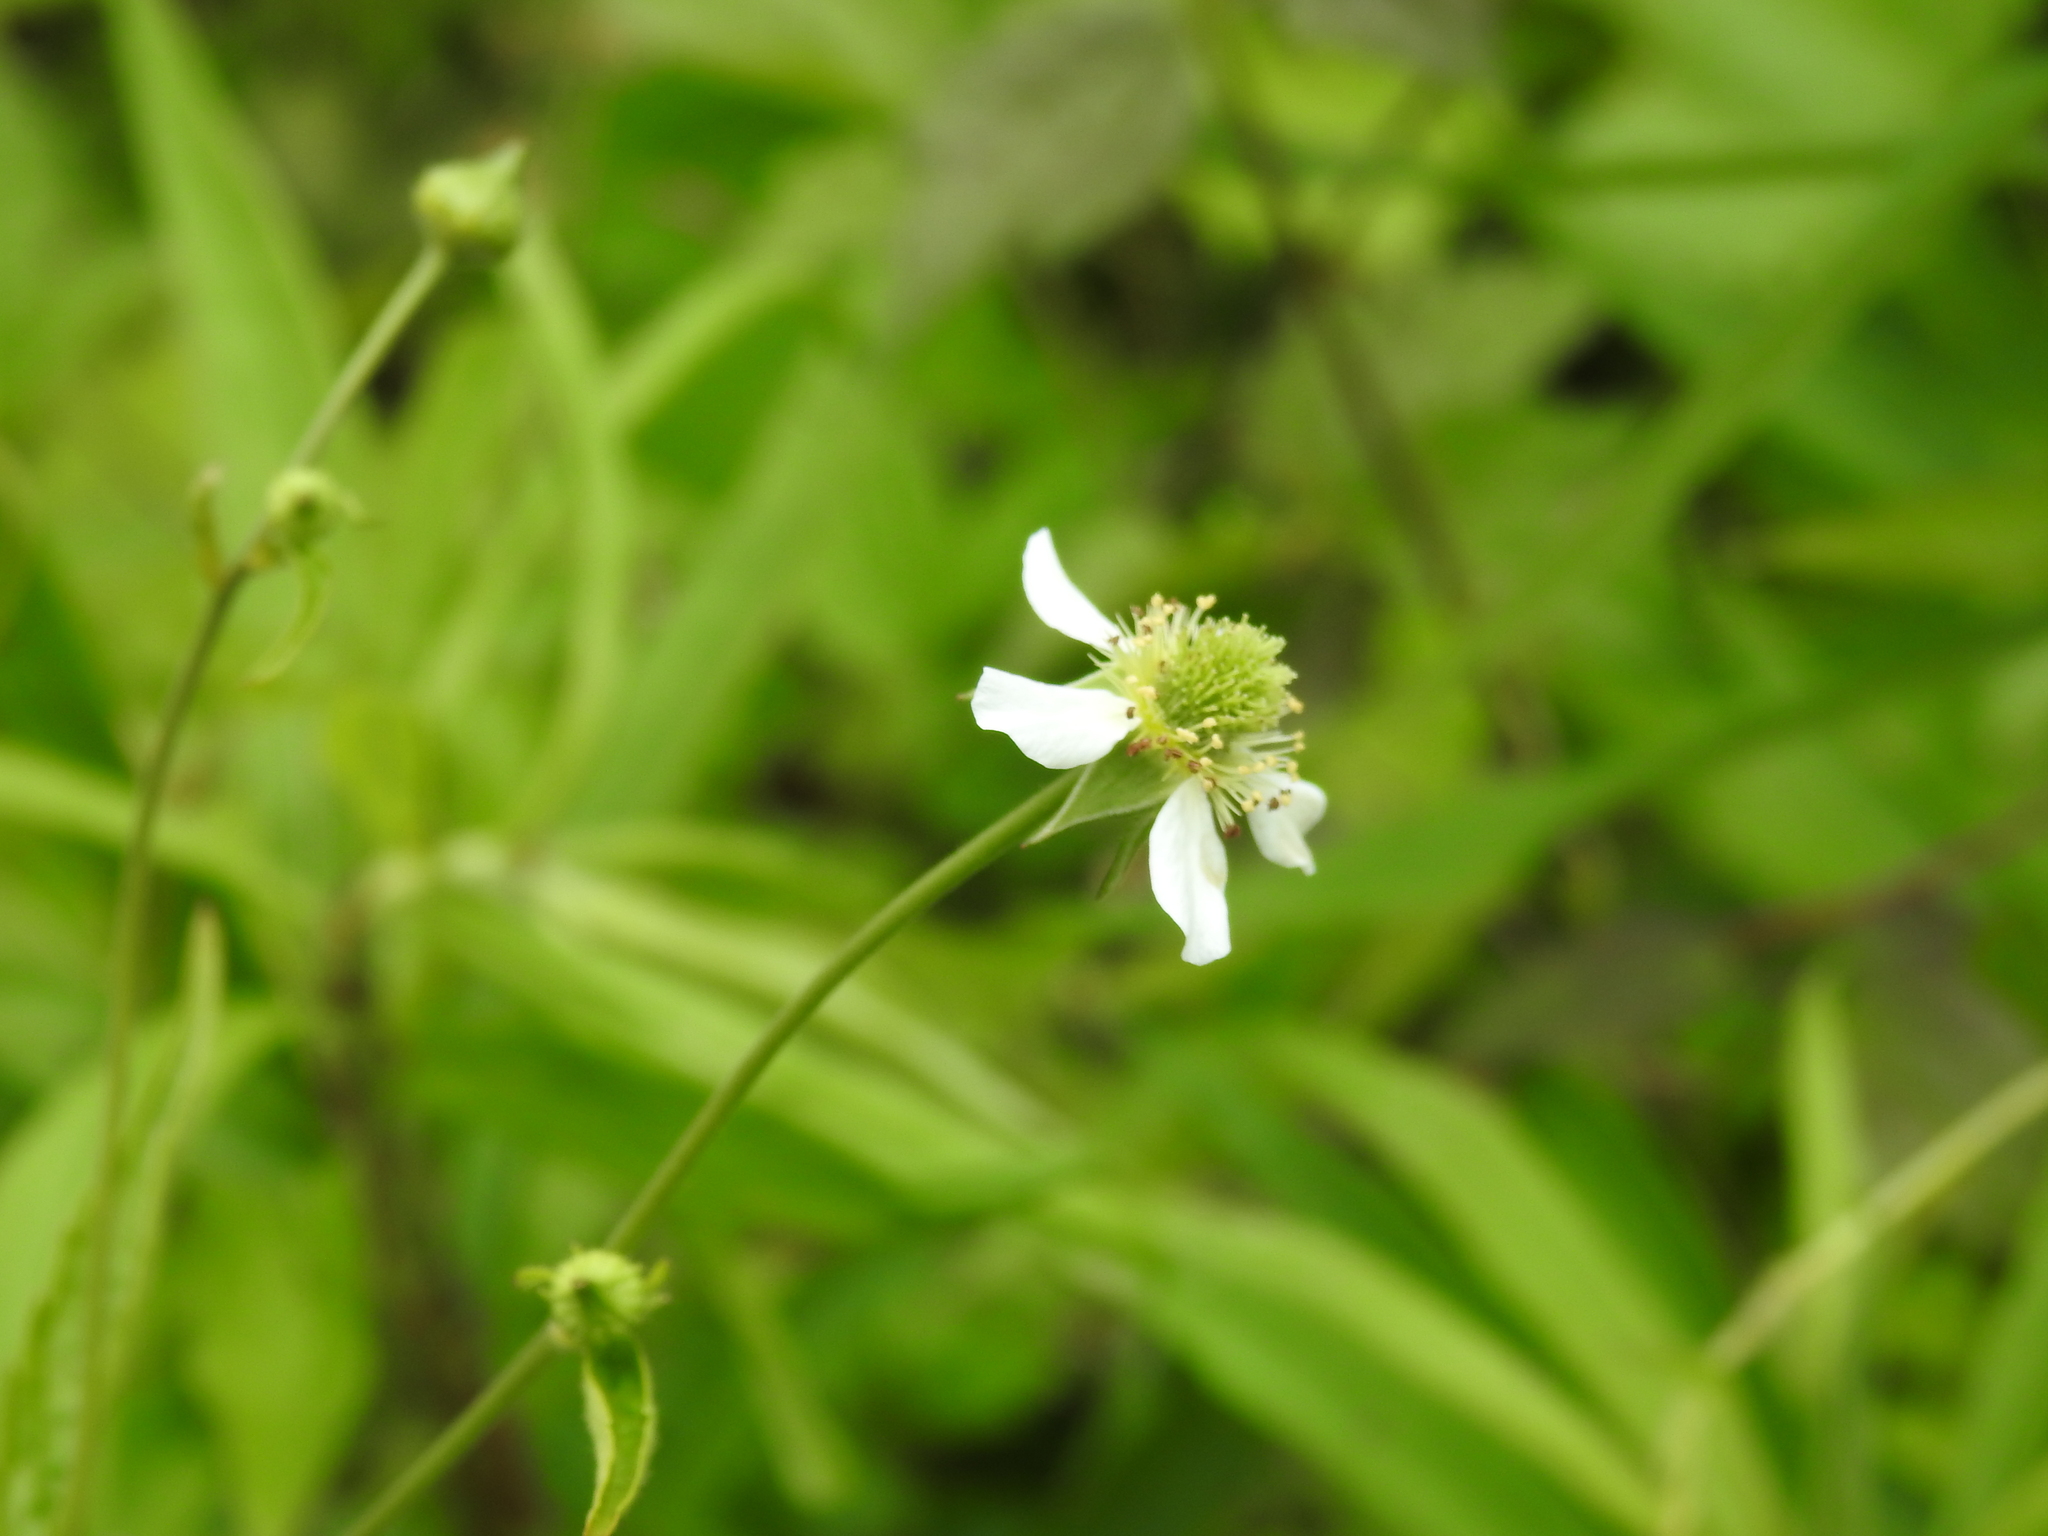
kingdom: Plantae
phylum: Tracheophyta
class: Magnoliopsida
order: Rosales
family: Rosaceae
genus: Geum
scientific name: Geum canadense
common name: White avens
